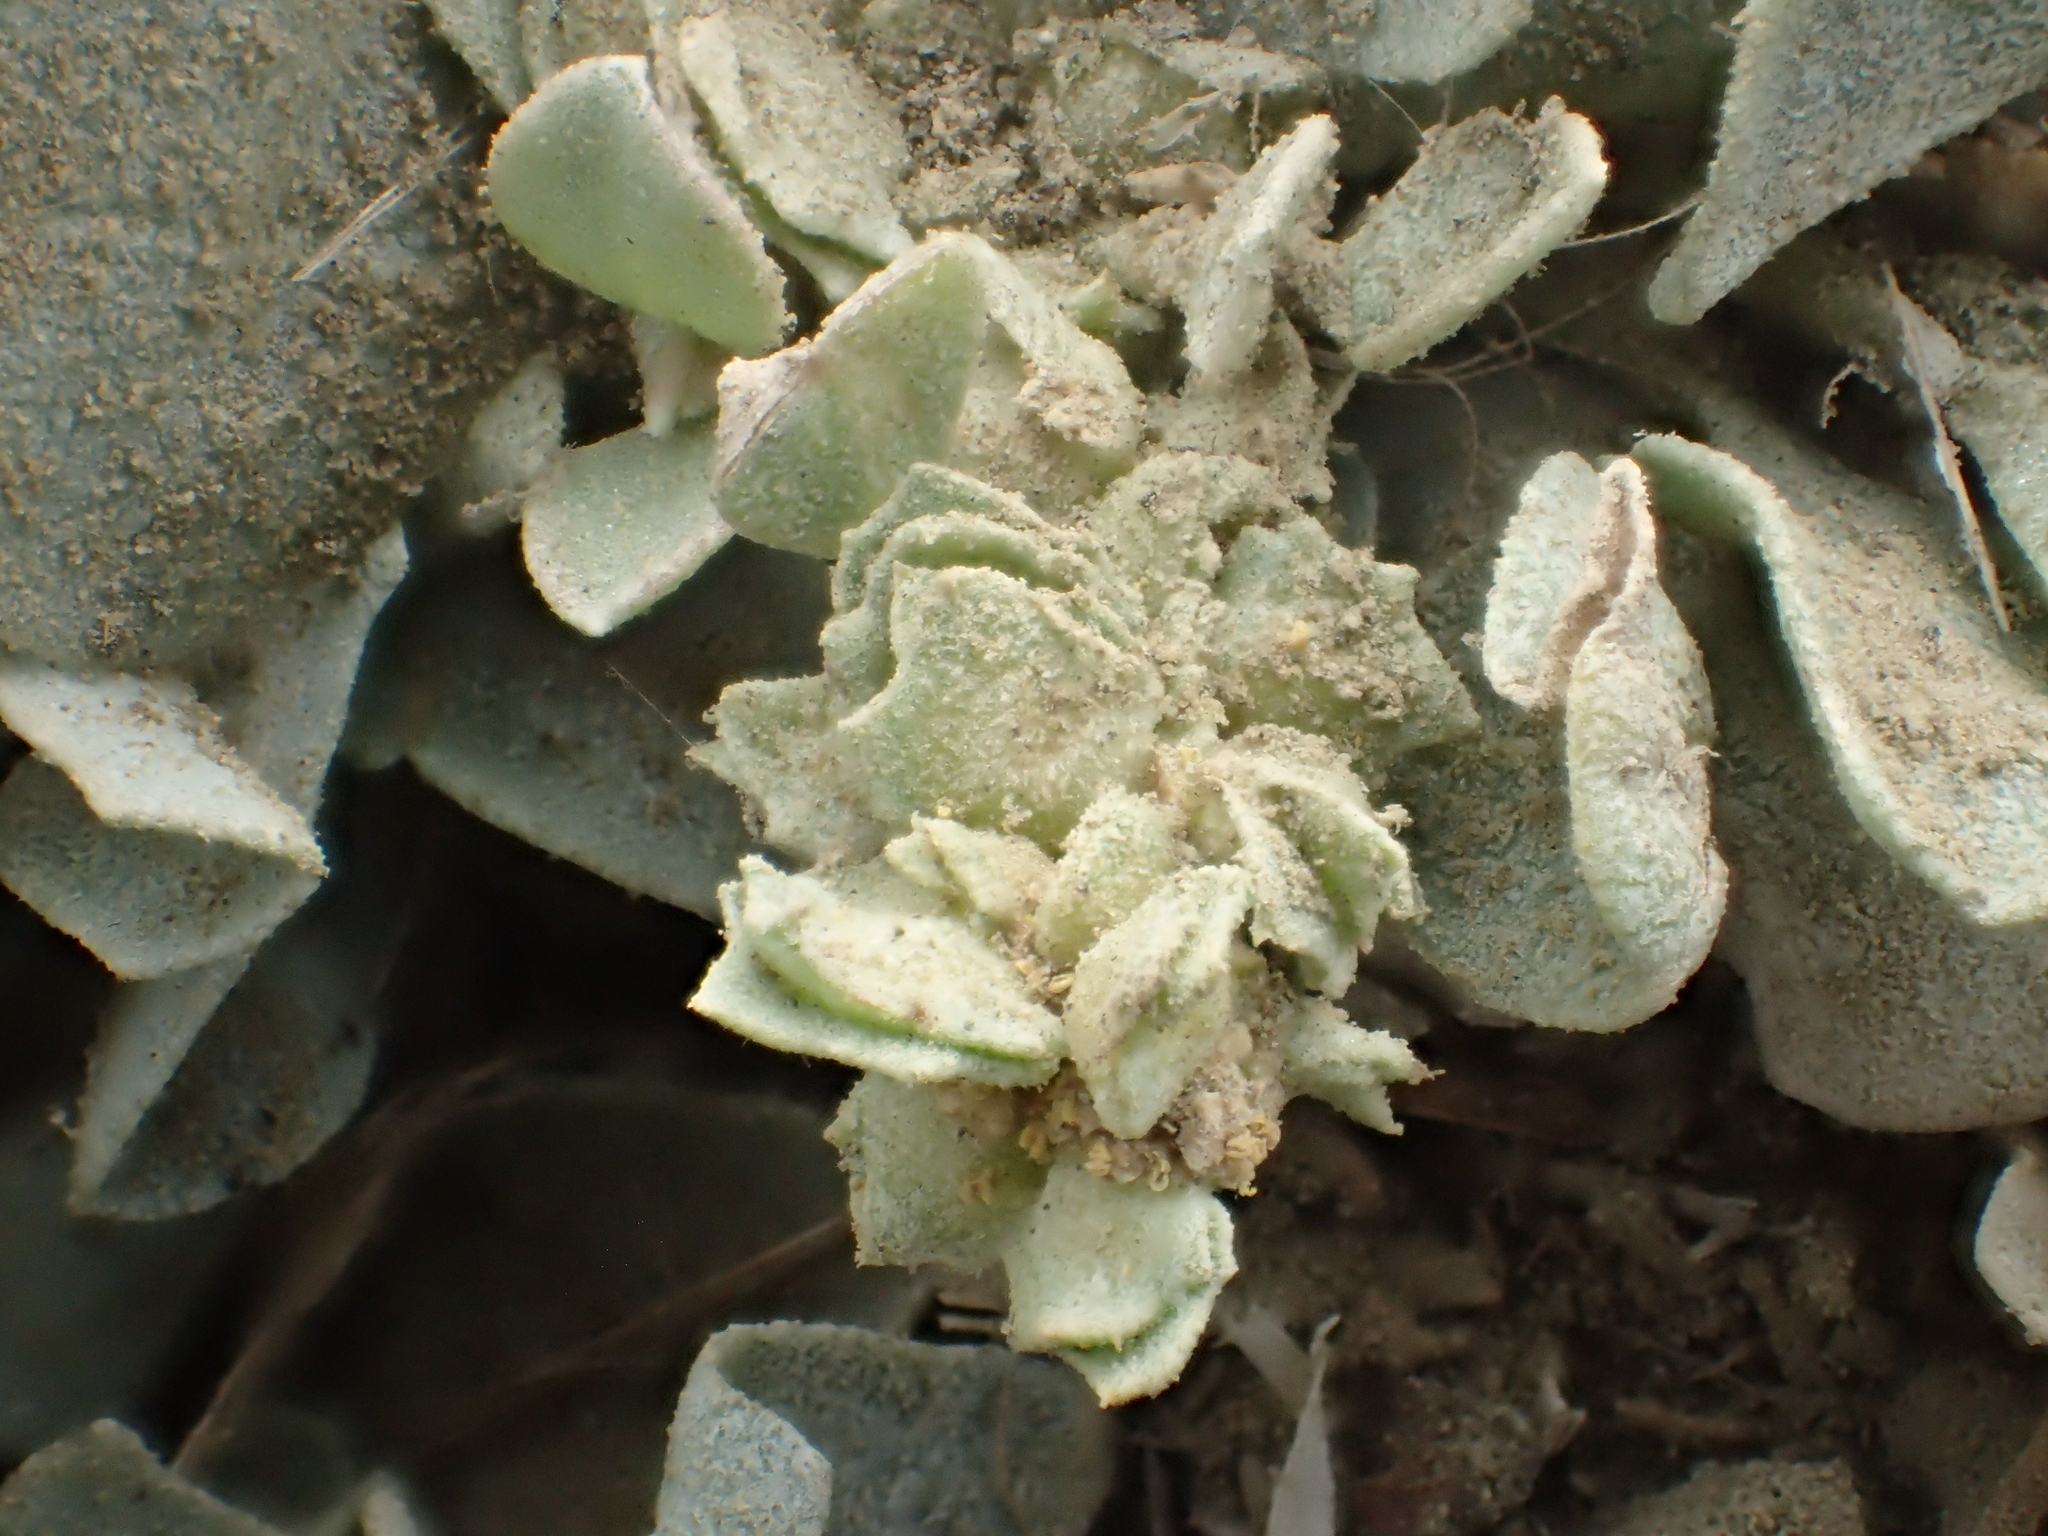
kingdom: Plantae
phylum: Tracheophyta
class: Magnoliopsida
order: Caryophyllales
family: Amaranthaceae
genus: Atriplex
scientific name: Atriplex maximowicziana
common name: Maximowicz's saltbush
